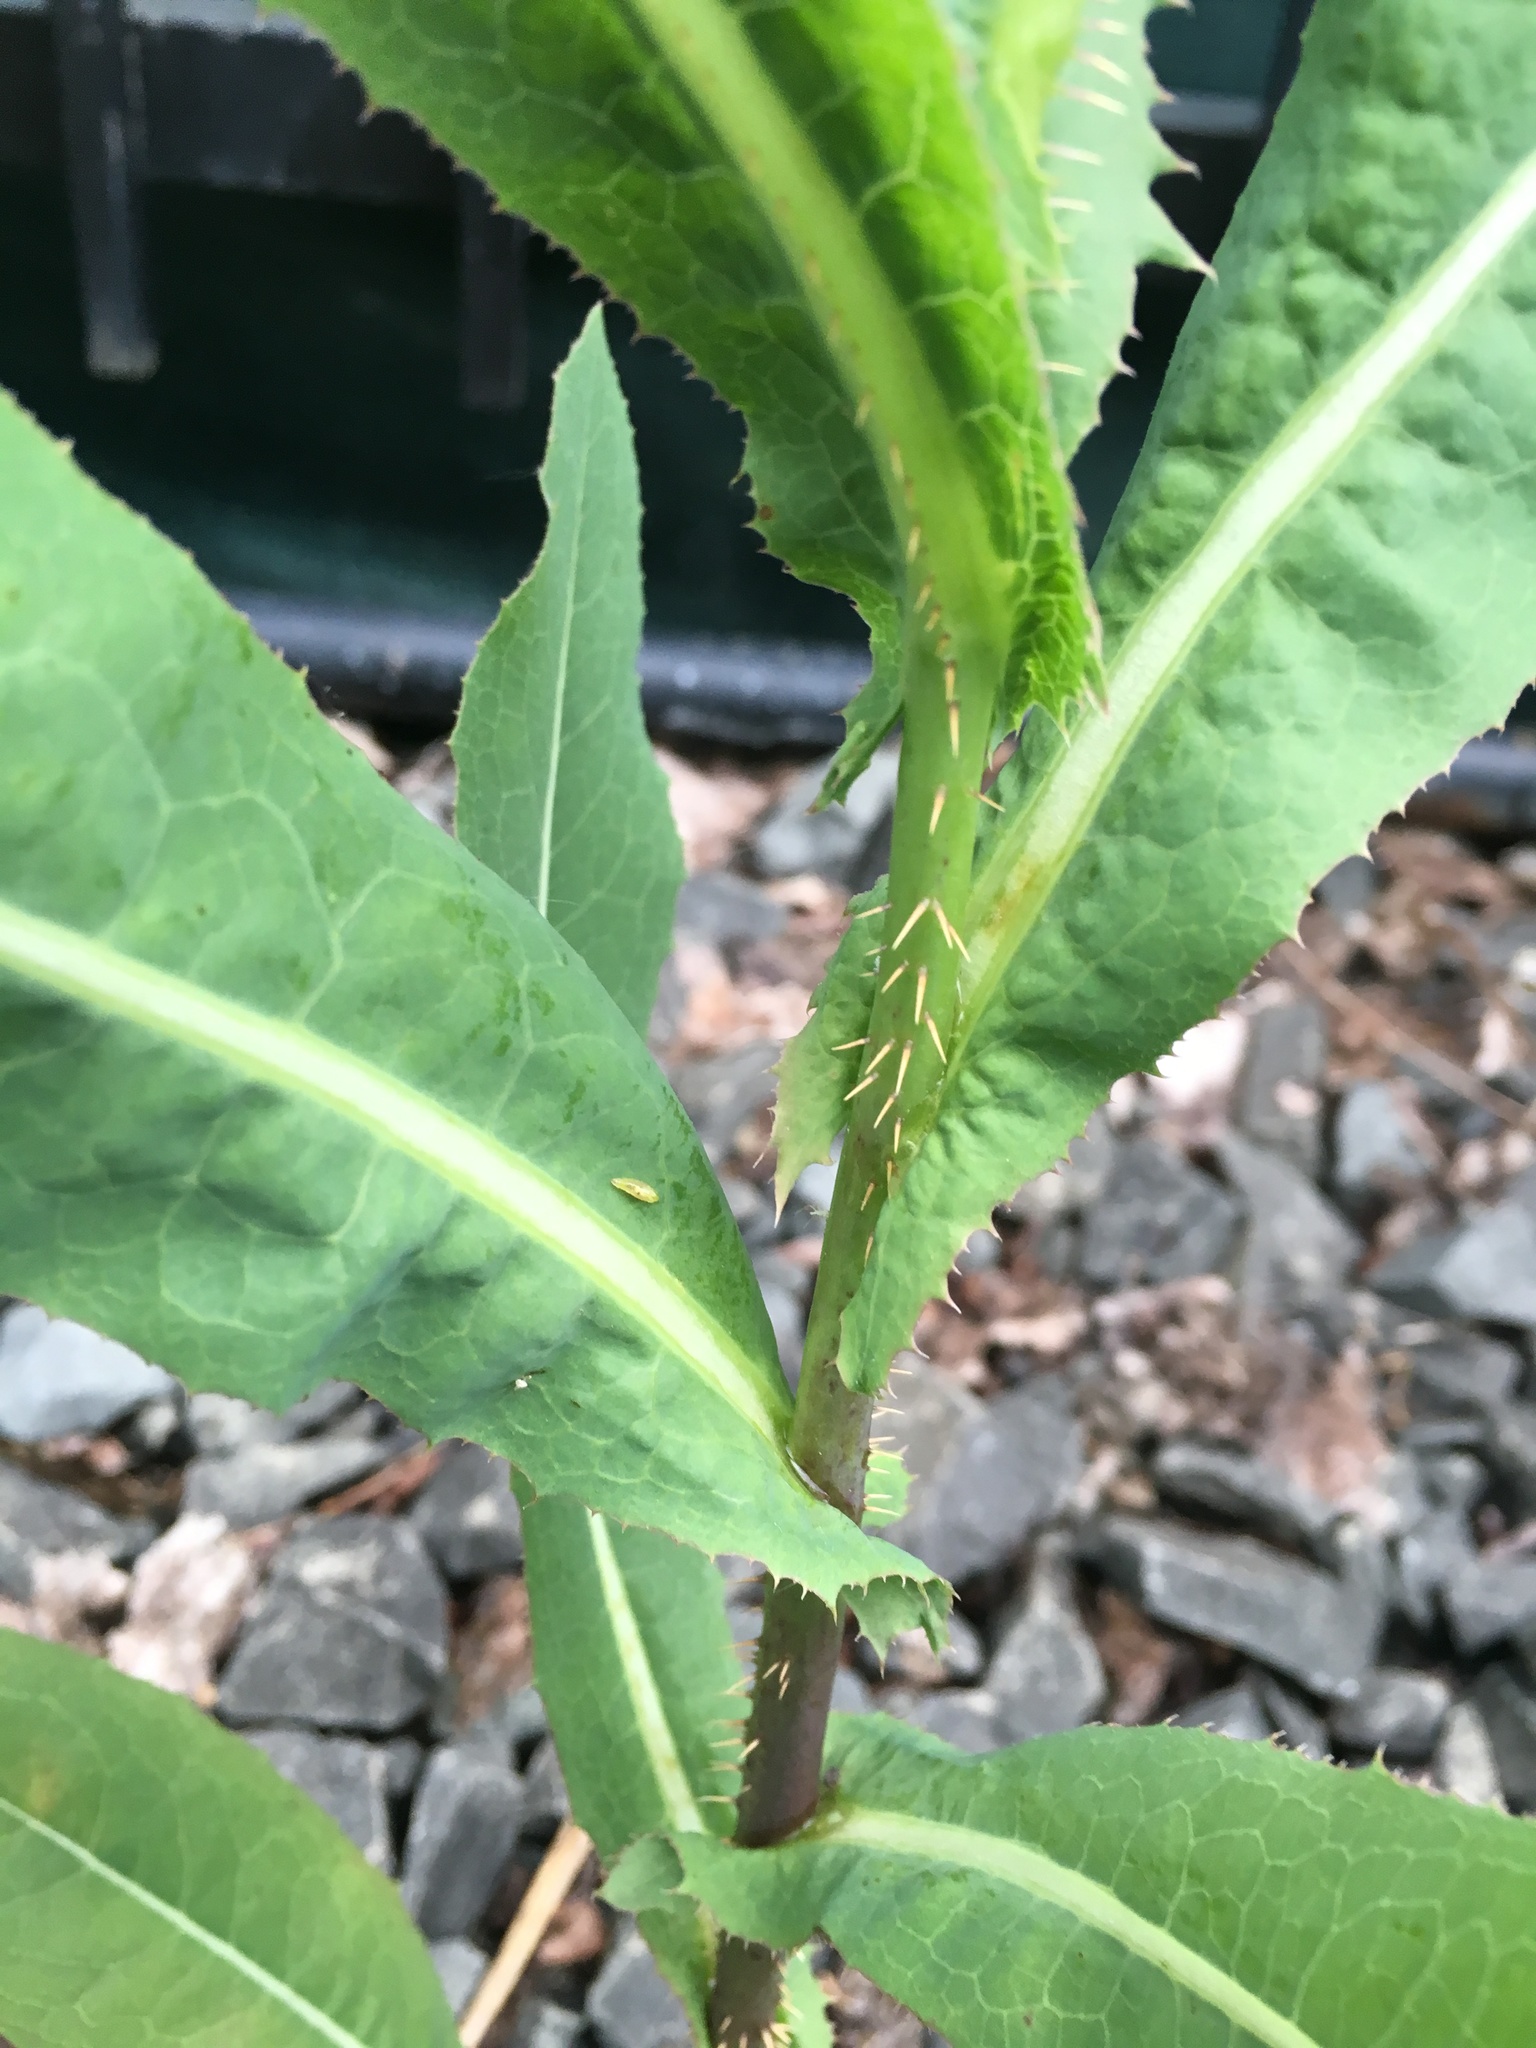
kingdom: Plantae
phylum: Tracheophyta
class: Magnoliopsida
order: Asterales
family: Asteraceae
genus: Lactuca
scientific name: Lactuca serriola
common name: Prickly lettuce
